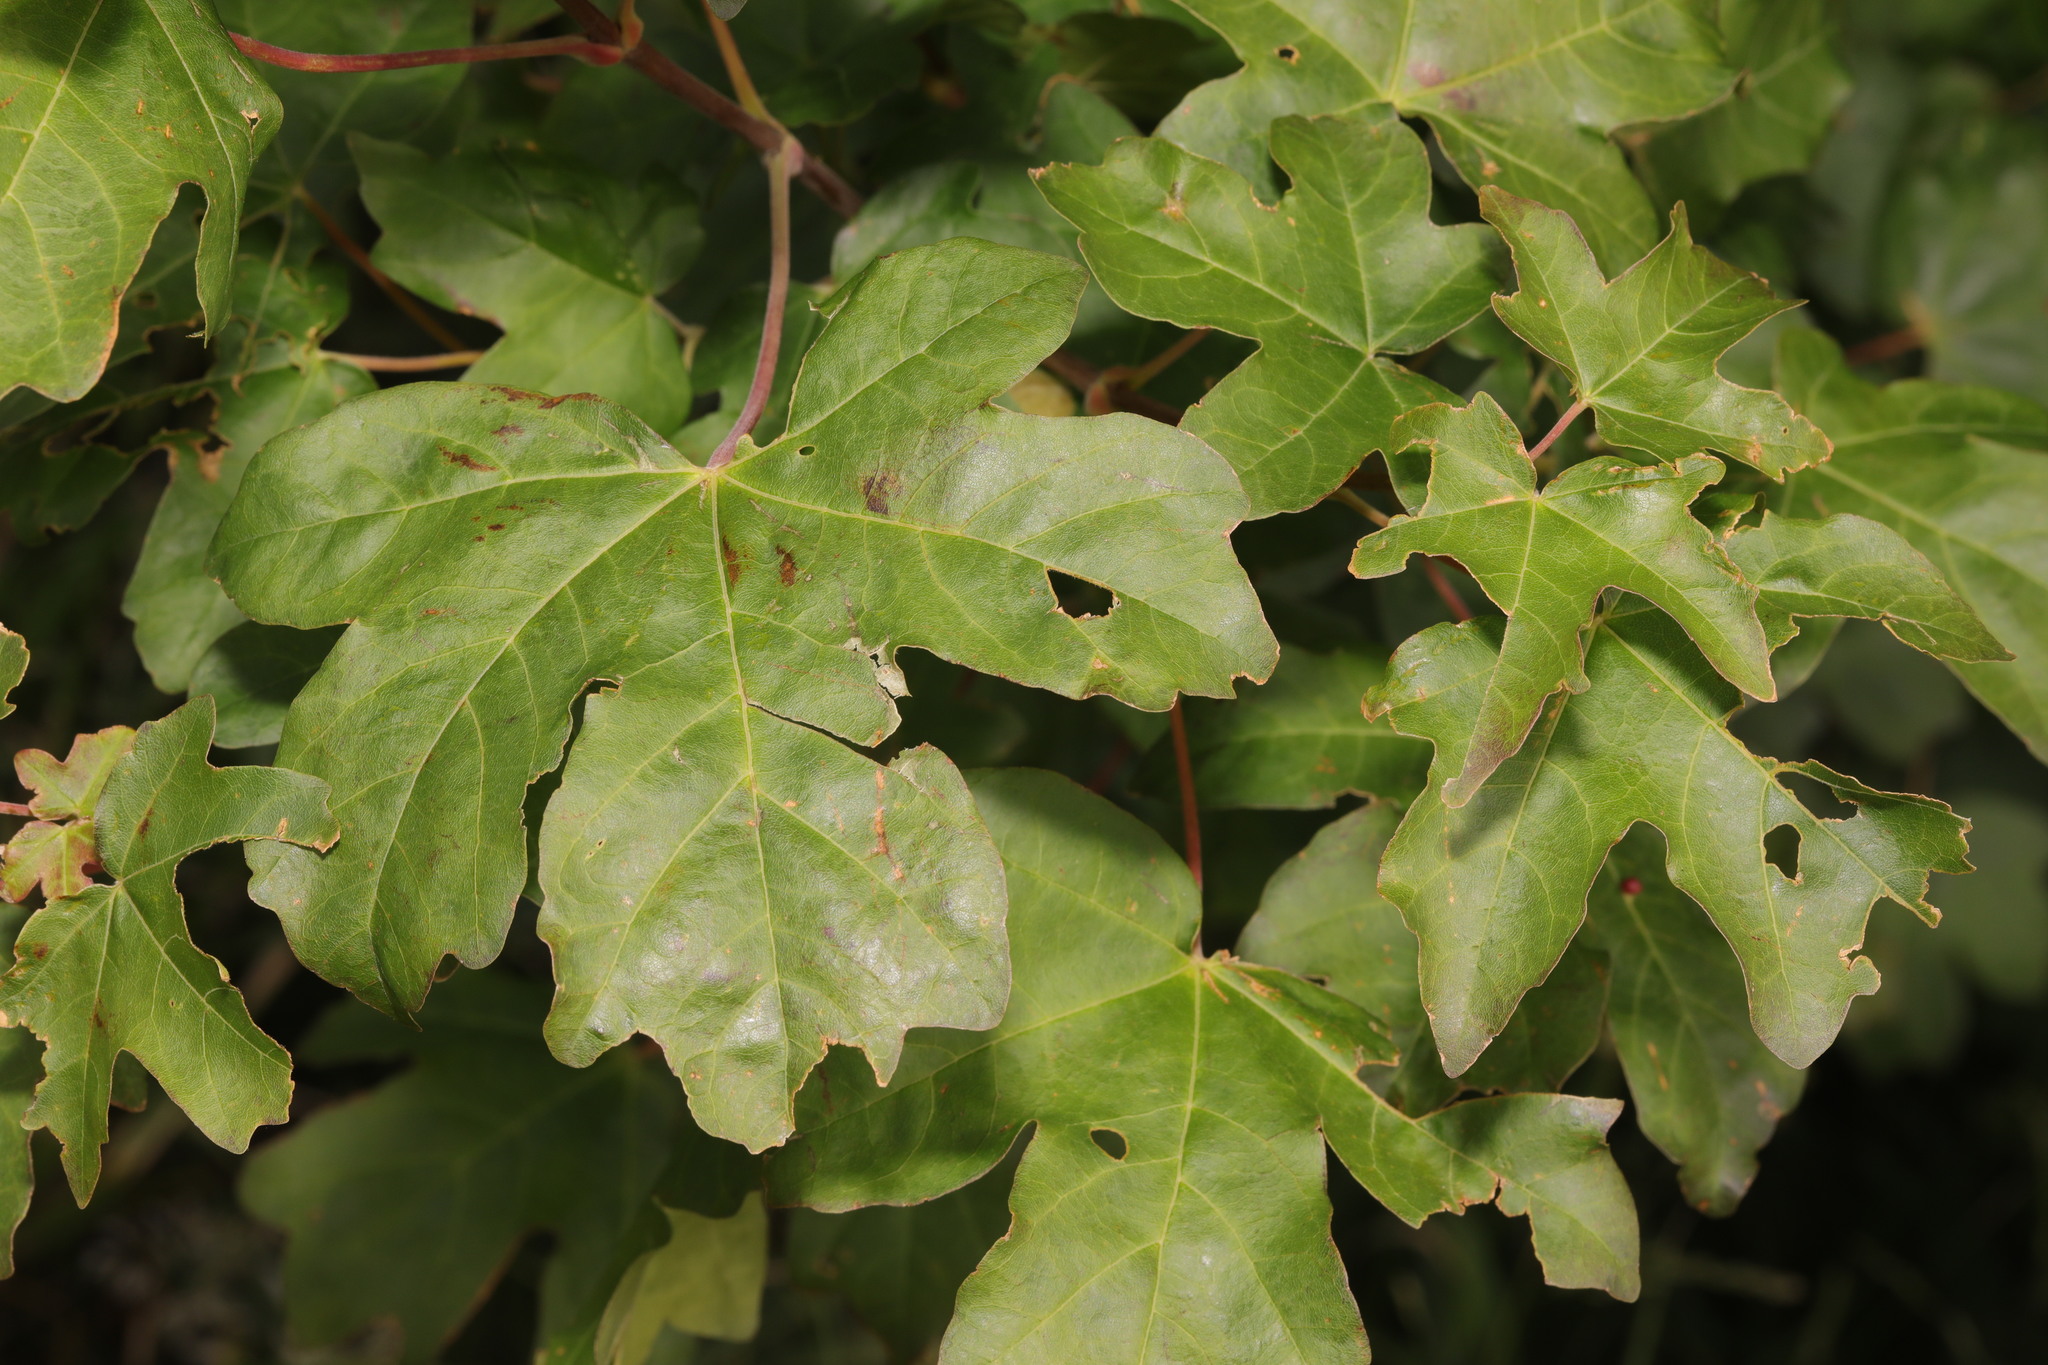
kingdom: Plantae
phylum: Tracheophyta
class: Magnoliopsida
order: Sapindales
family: Sapindaceae
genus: Acer
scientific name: Acer campestre
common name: Field maple
